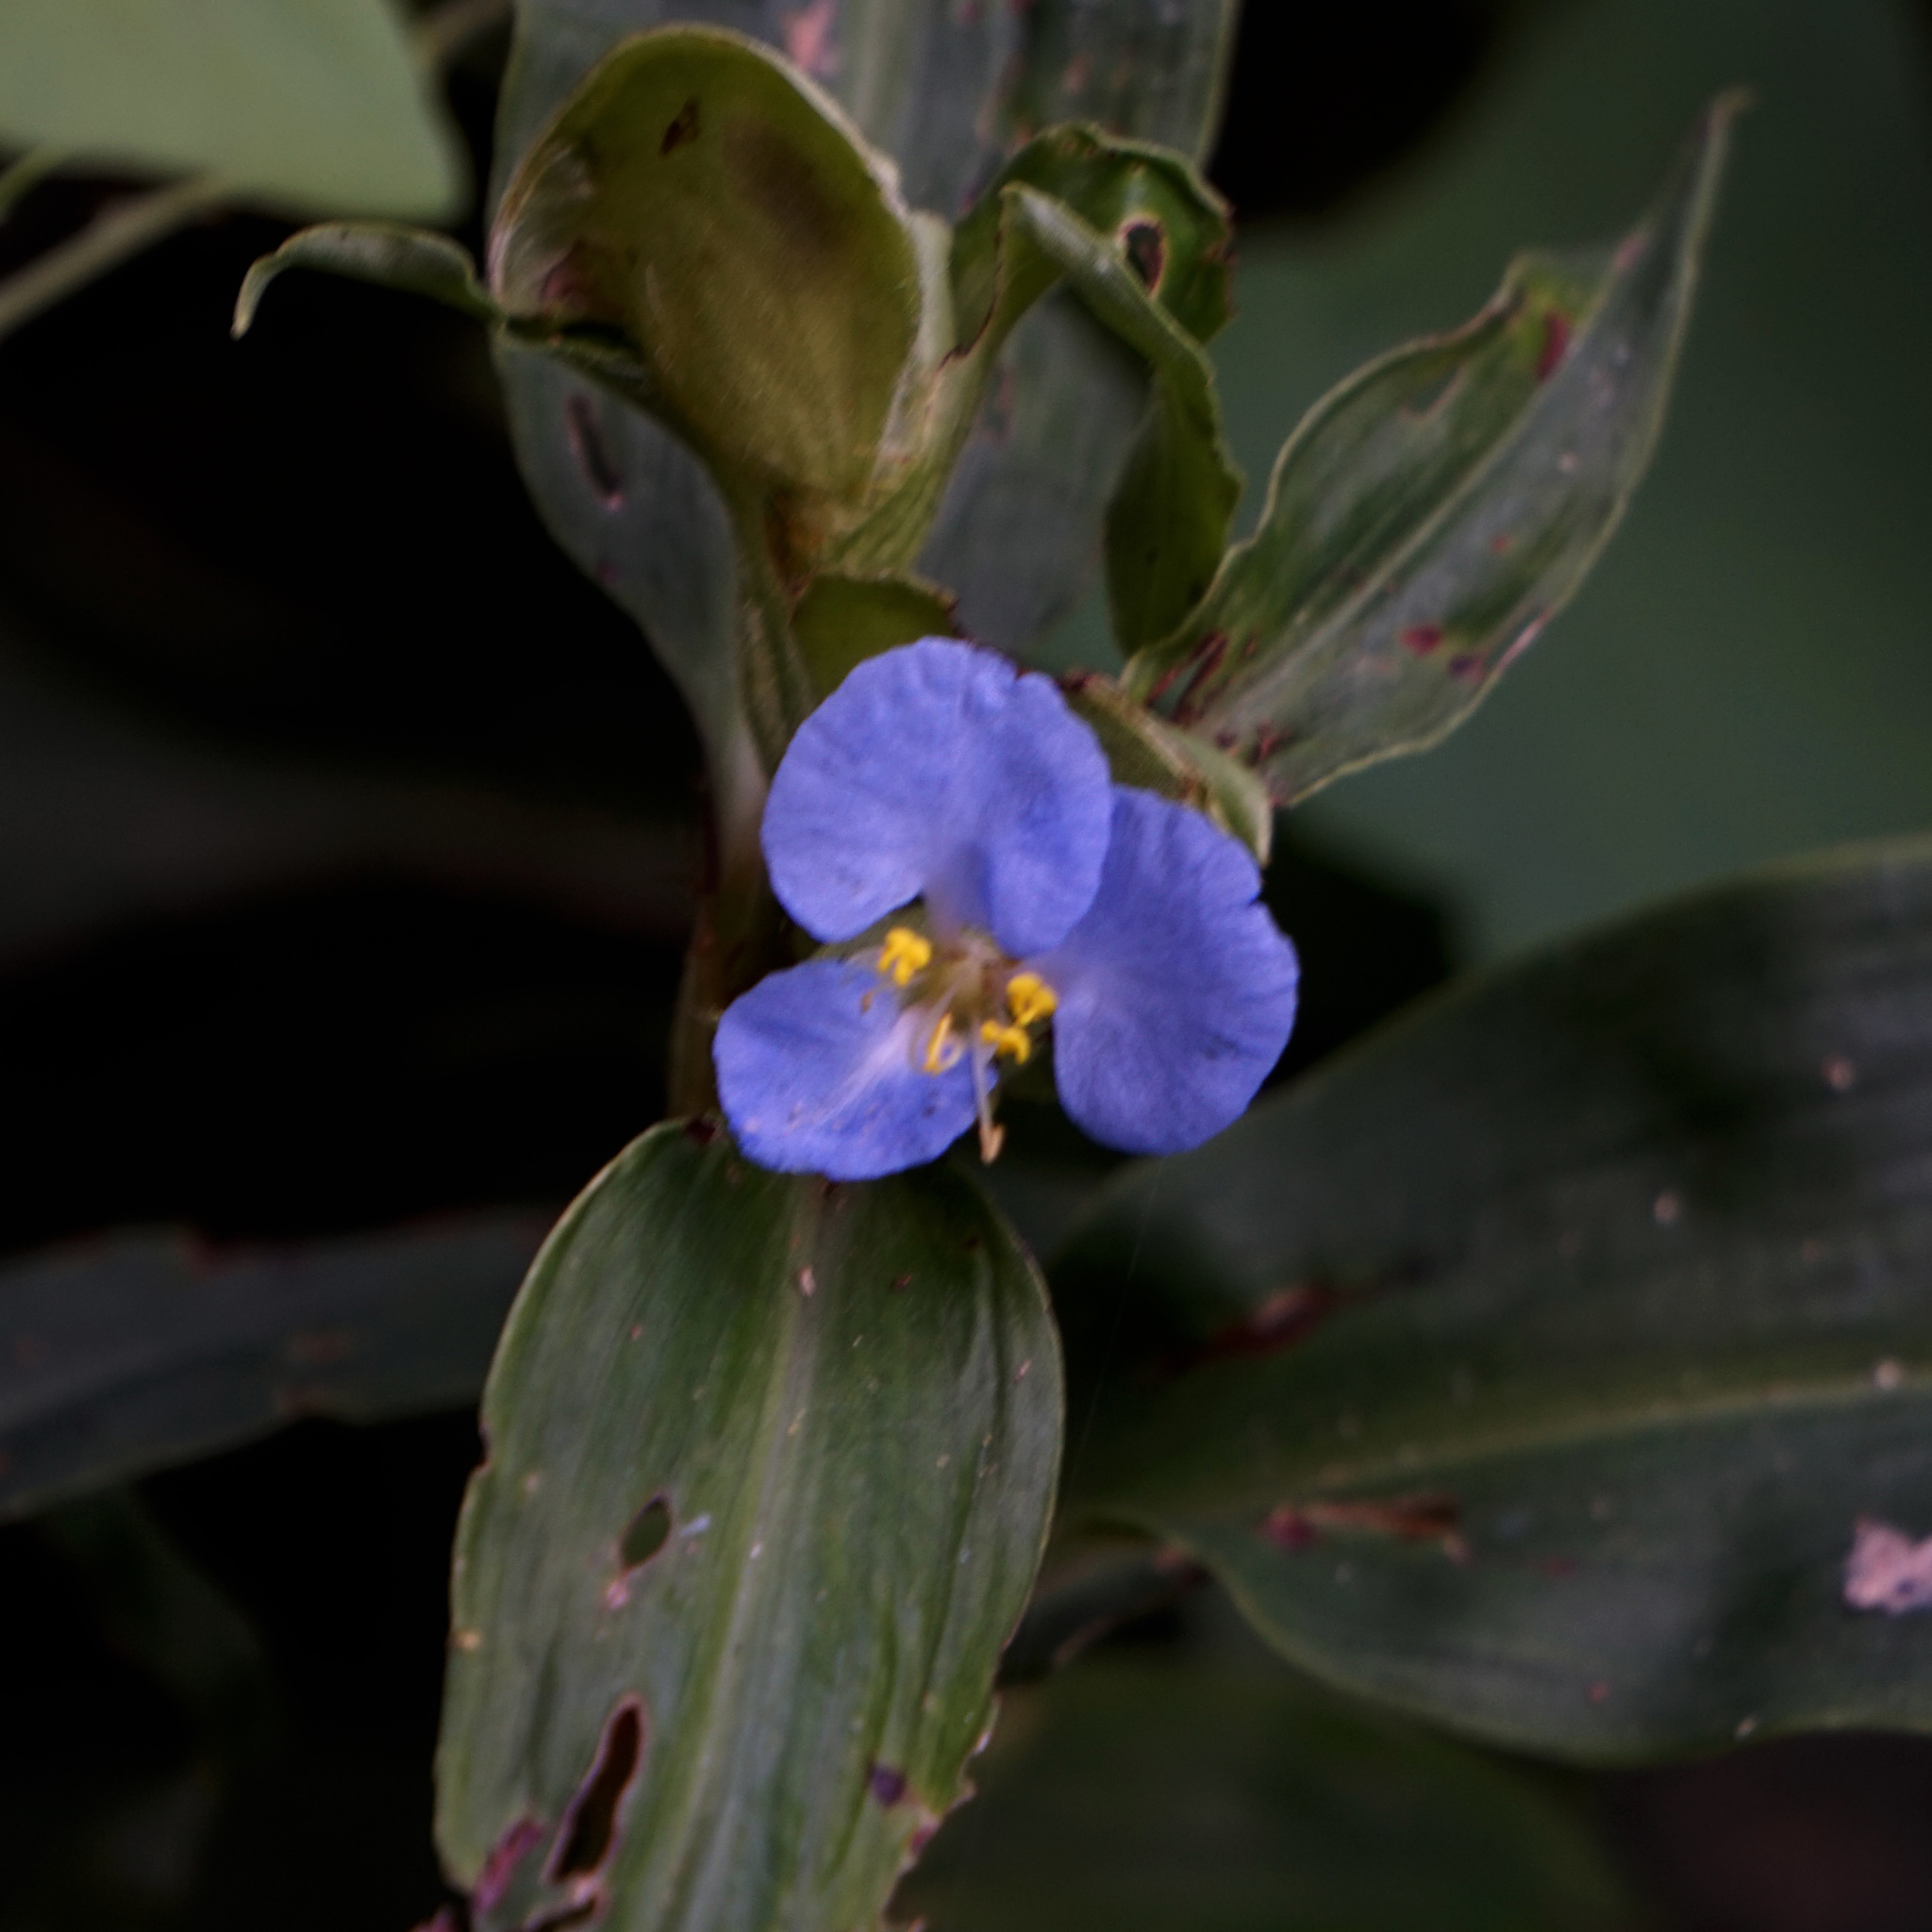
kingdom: Plantae
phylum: Tracheophyta
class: Liliopsida
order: Commelinales
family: Commelinaceae
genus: Commelina
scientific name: Commelina virginica
